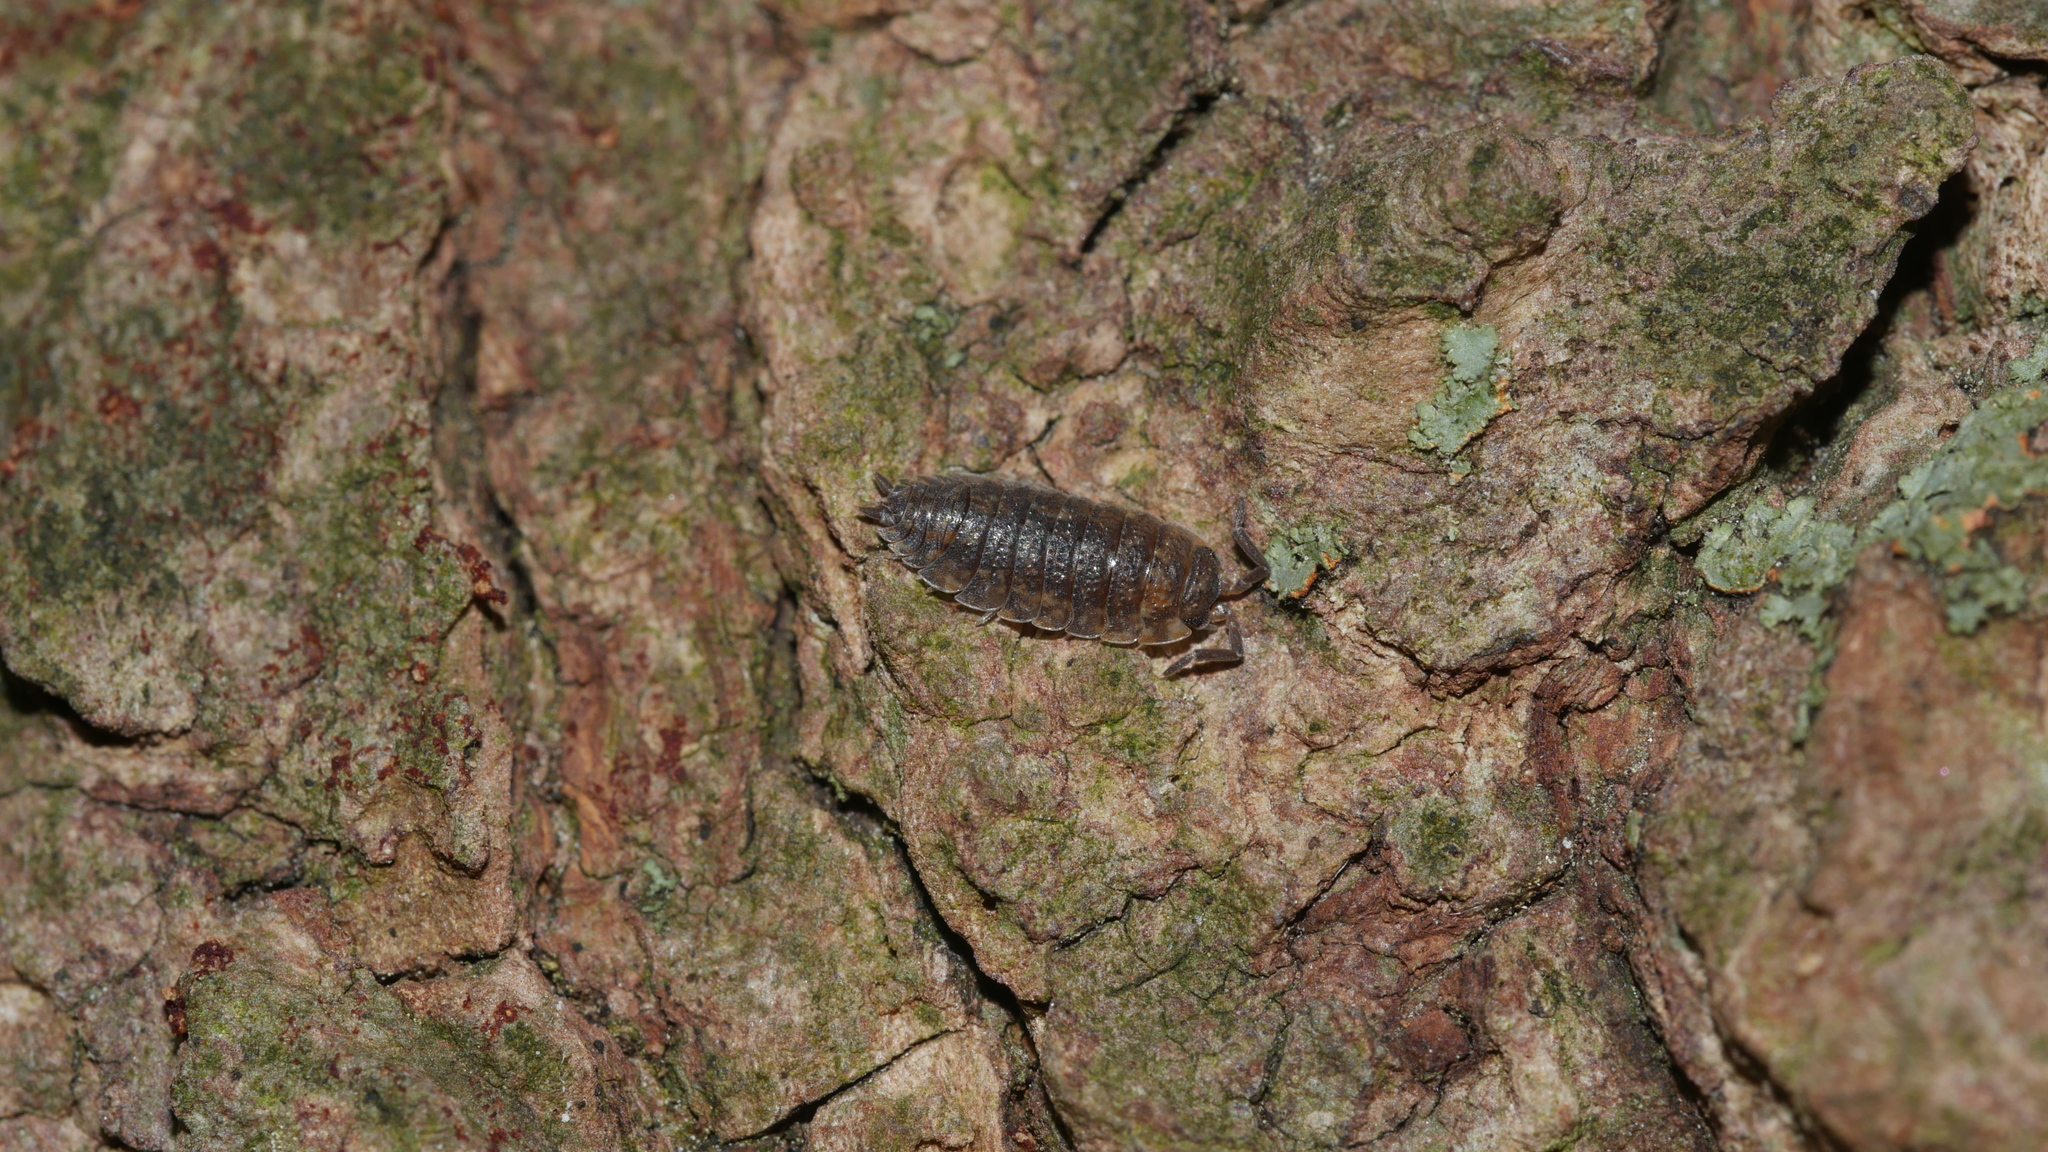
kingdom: Animalia
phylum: Arthropoda
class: Malacostraca
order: Isopoda
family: Porcellionidae
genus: Porcellio
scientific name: Porcellio scaber
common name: Common rough woodlouse
